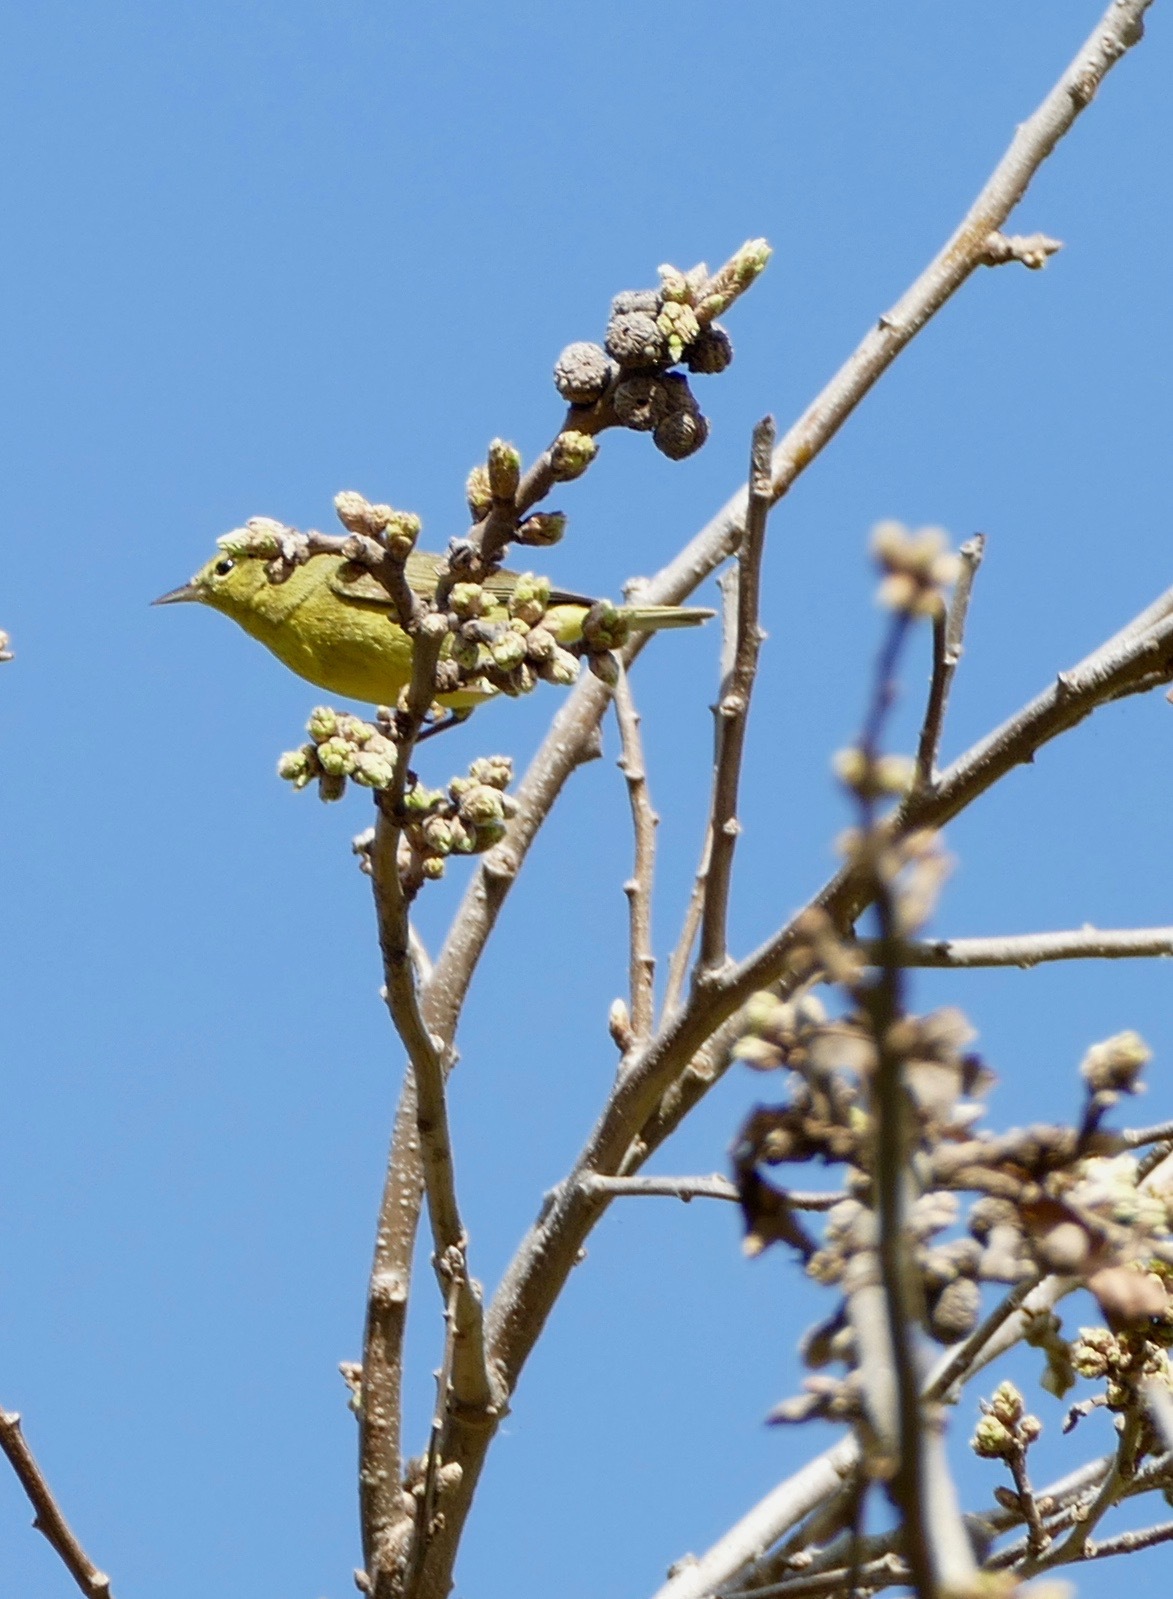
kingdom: Animalia
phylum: Chordata
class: Aves
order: Passeriformes
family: Parulidae
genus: Leiothlypis
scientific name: Leiothlypis celata
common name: Orange-crowned warbler
